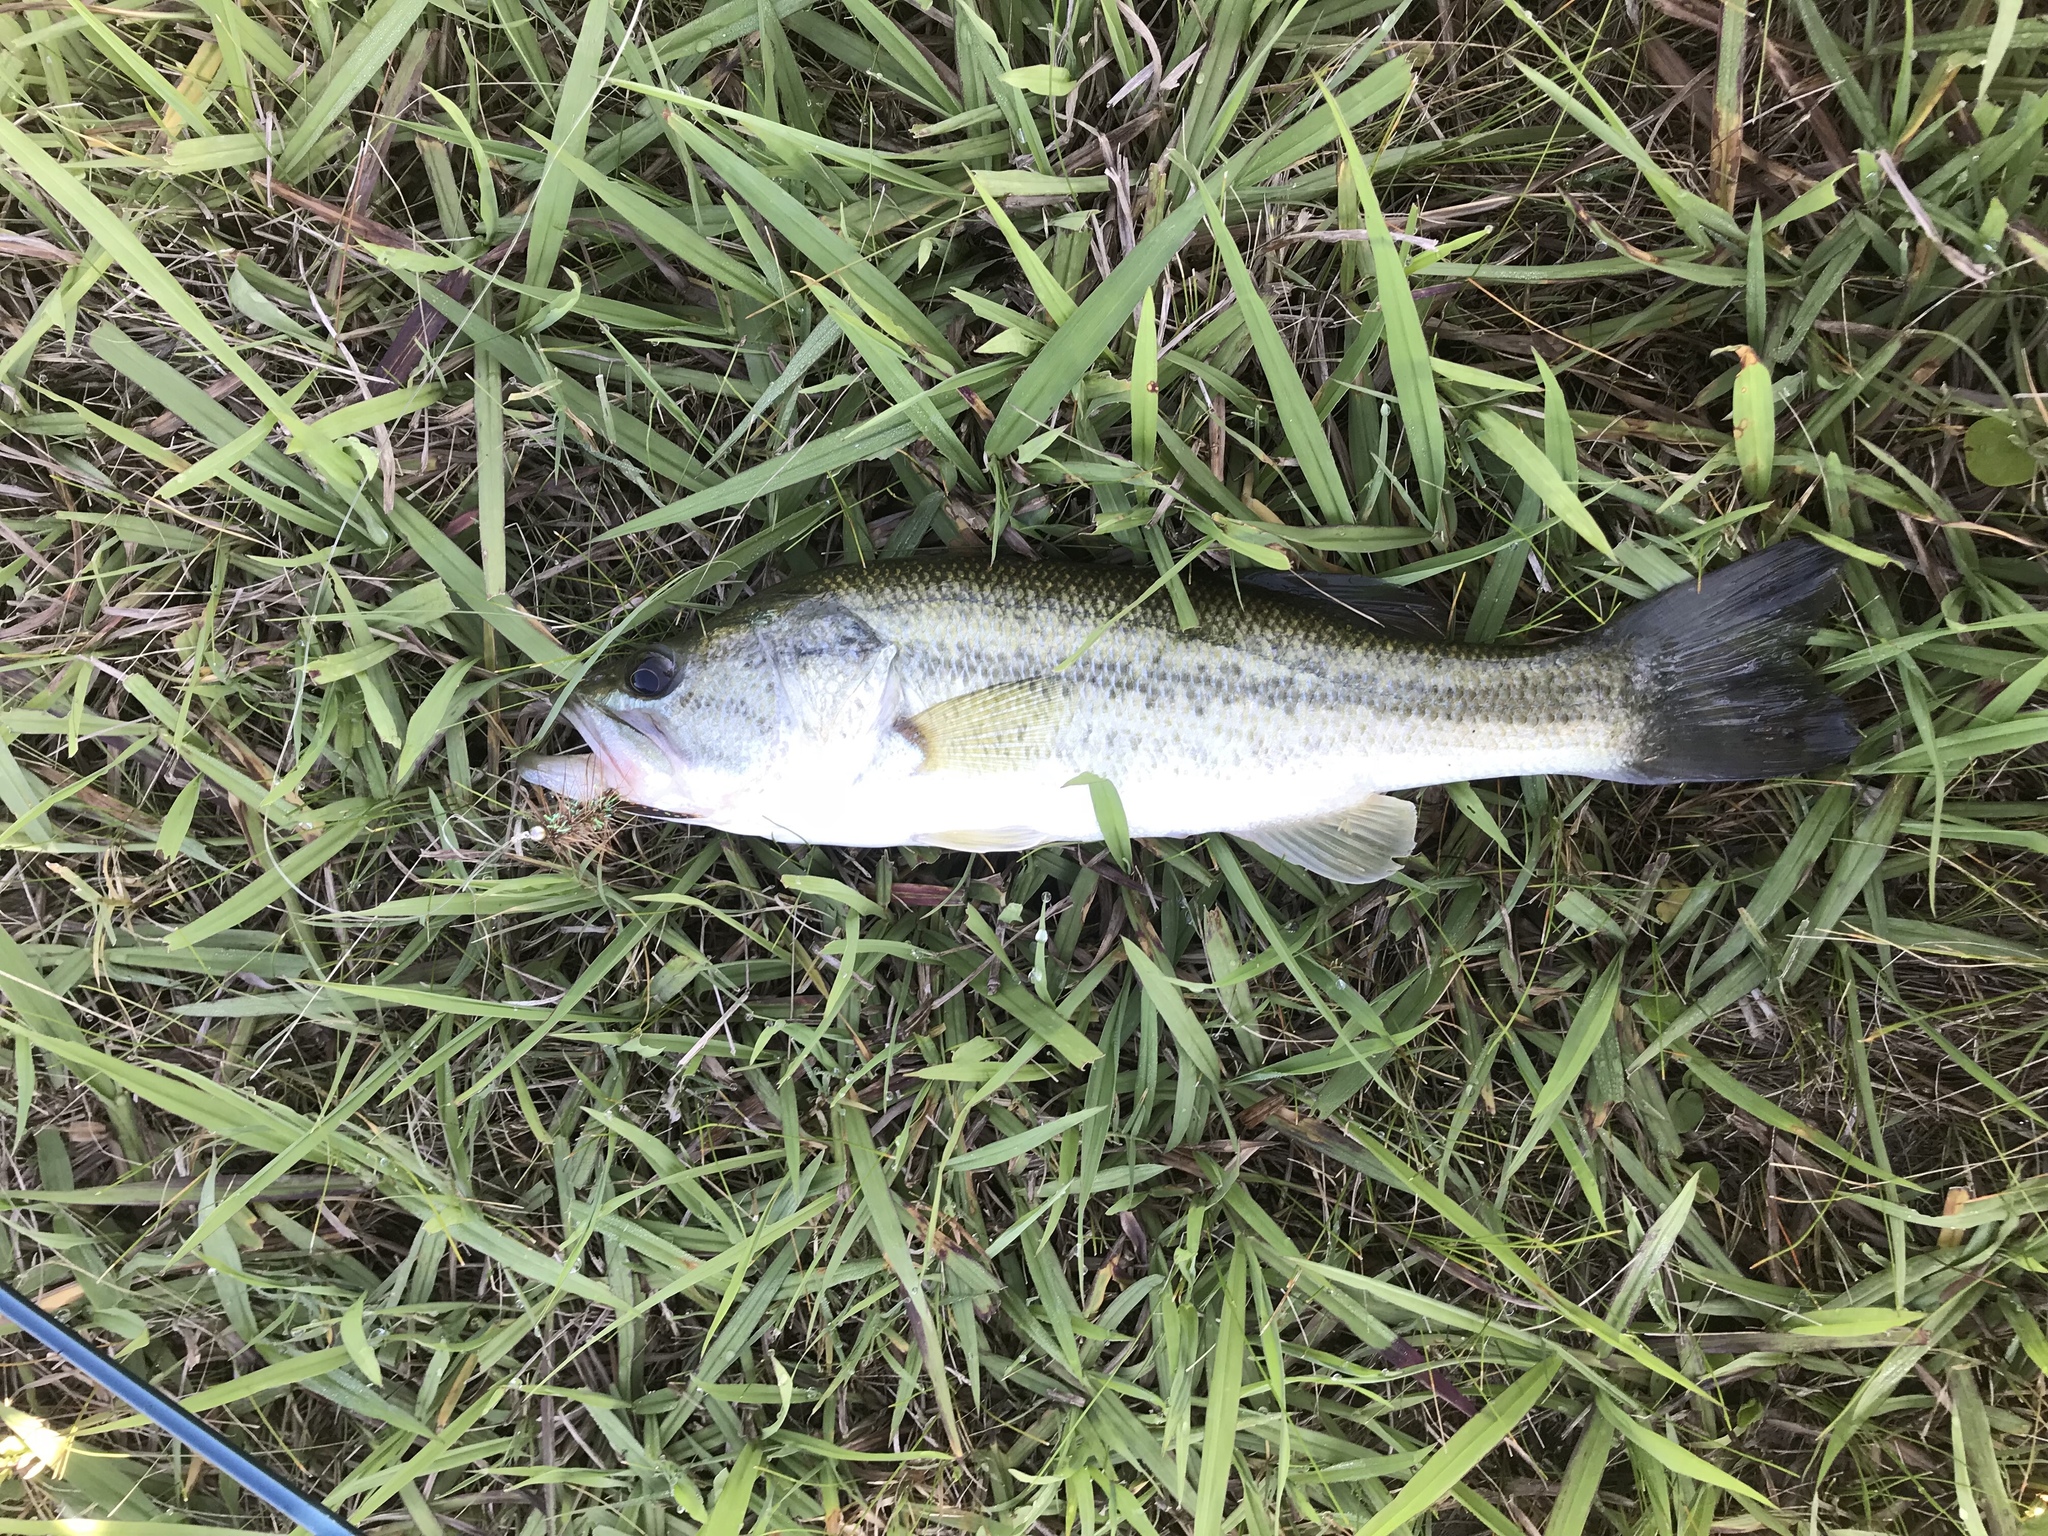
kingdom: Animalia
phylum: Chordata
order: Perciformes
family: Centrarchidae
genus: Micropterus
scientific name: Micropterus
